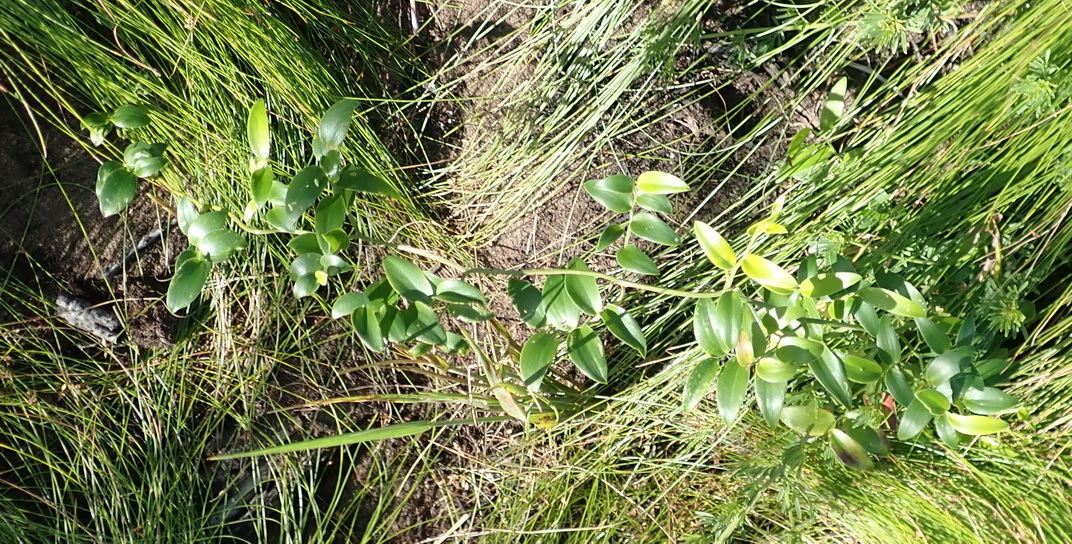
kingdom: Plantae
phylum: Tracheophyta
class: Liliopsida
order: Asparagales
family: Asparagaceae
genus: Asparagus
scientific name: Asparagus asparagoides
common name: African asparagus fern
